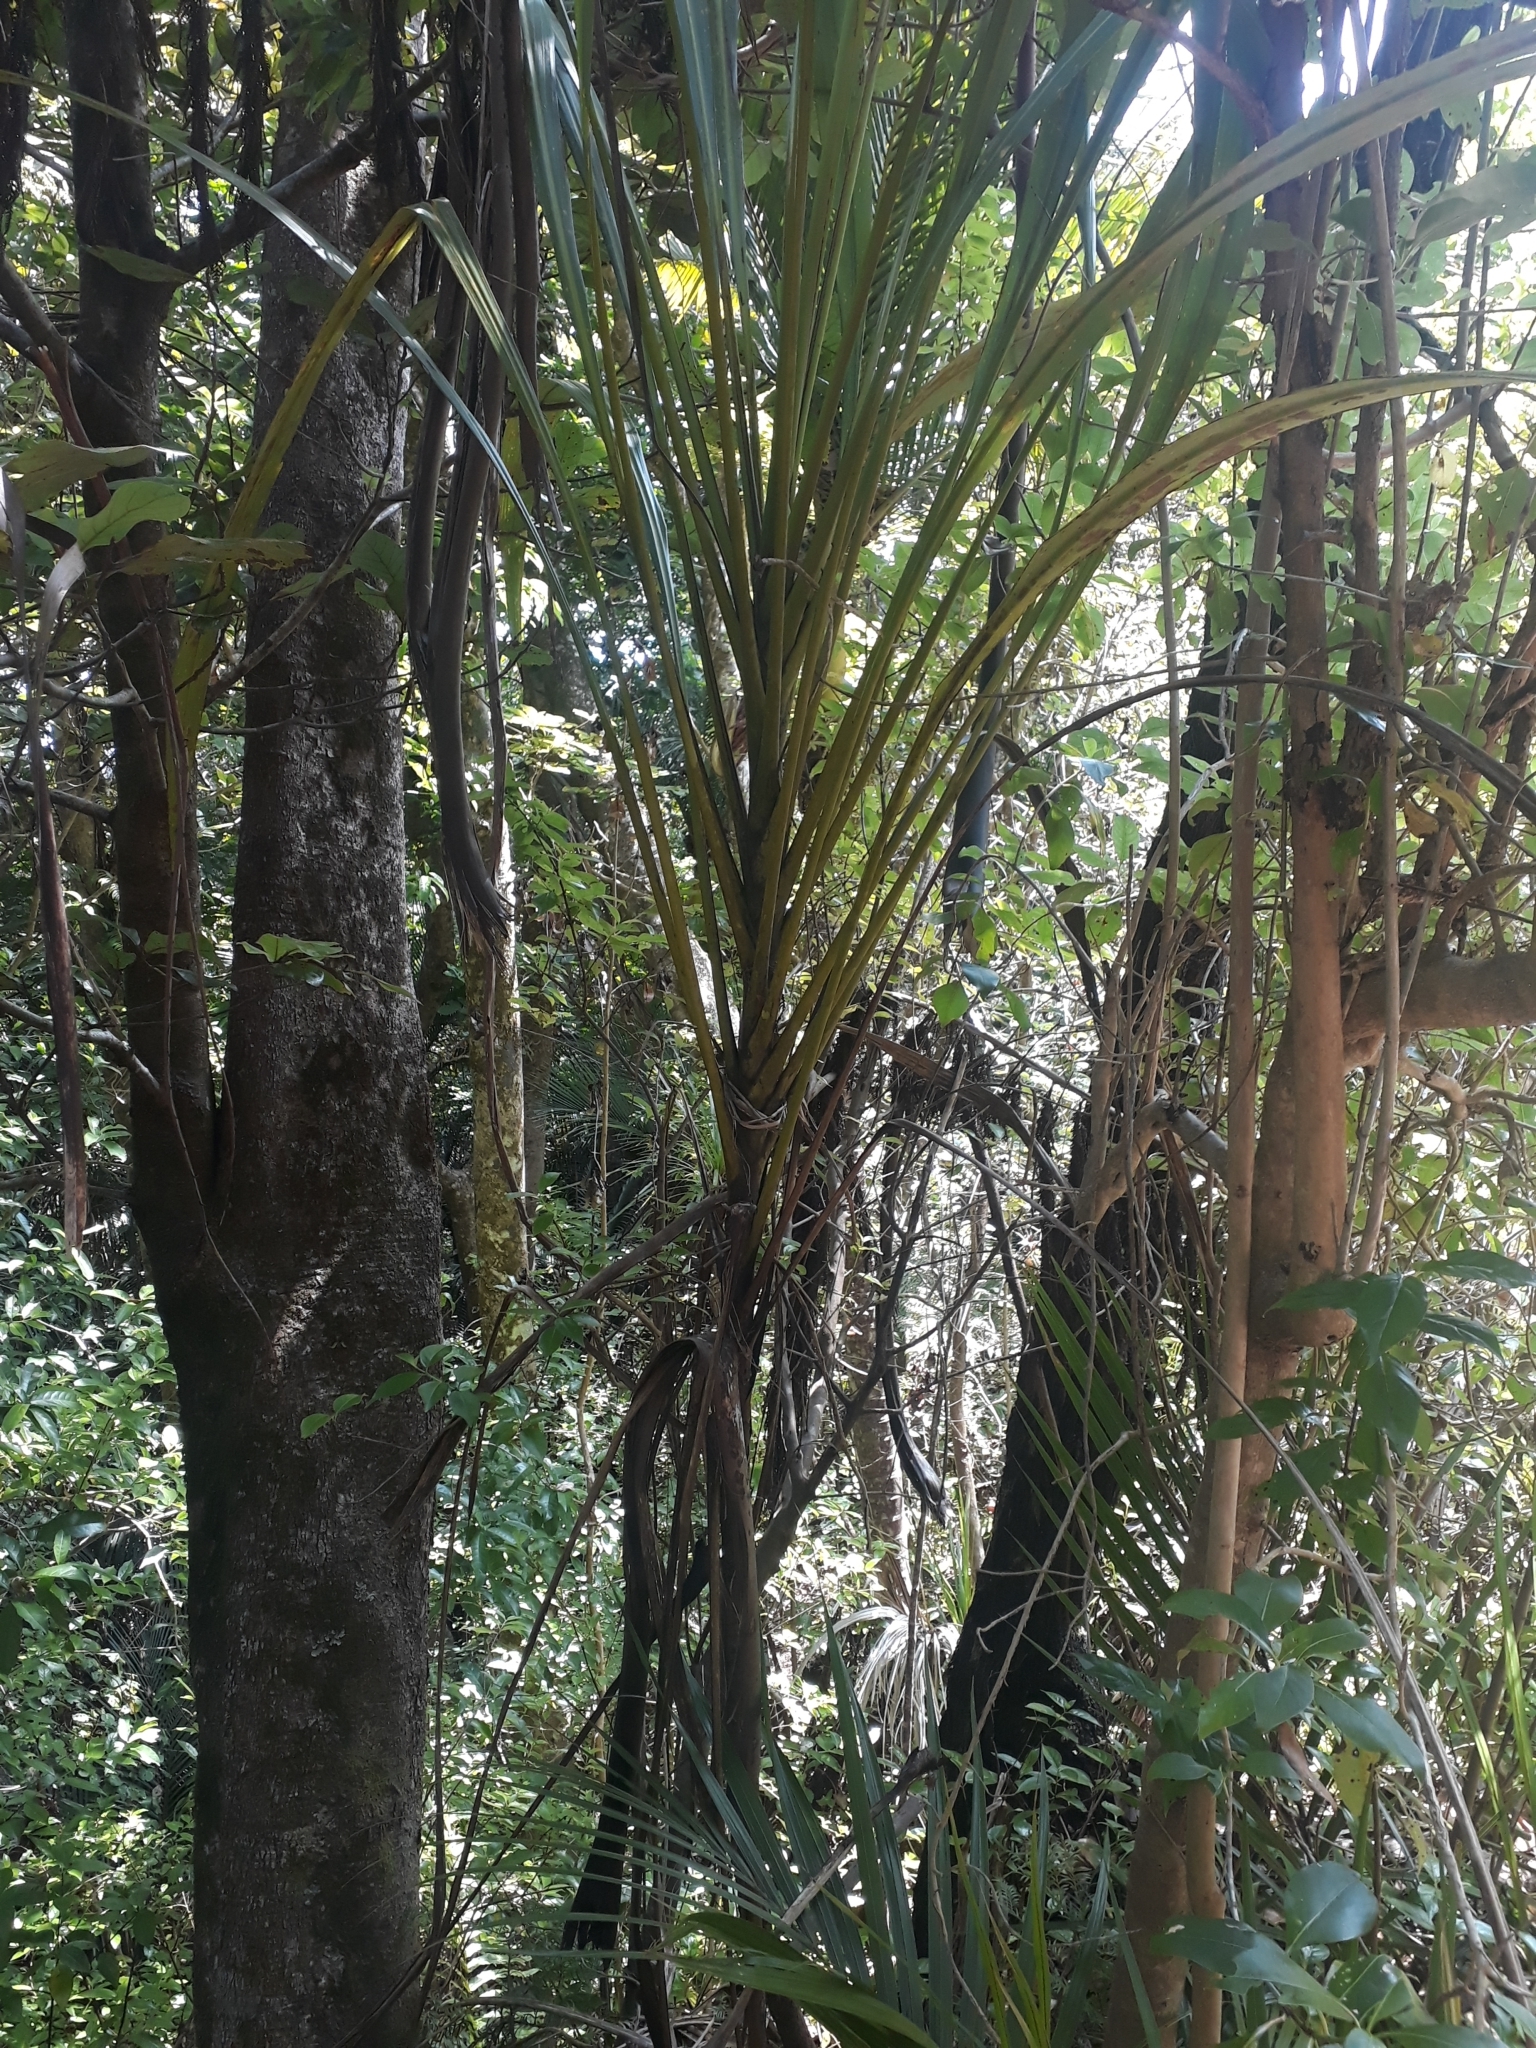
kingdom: Plantae
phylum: Tracheophyta
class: Liliopsida
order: Asparagales
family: Asparagaceae
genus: Cordyline
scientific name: Cordyline banksii
